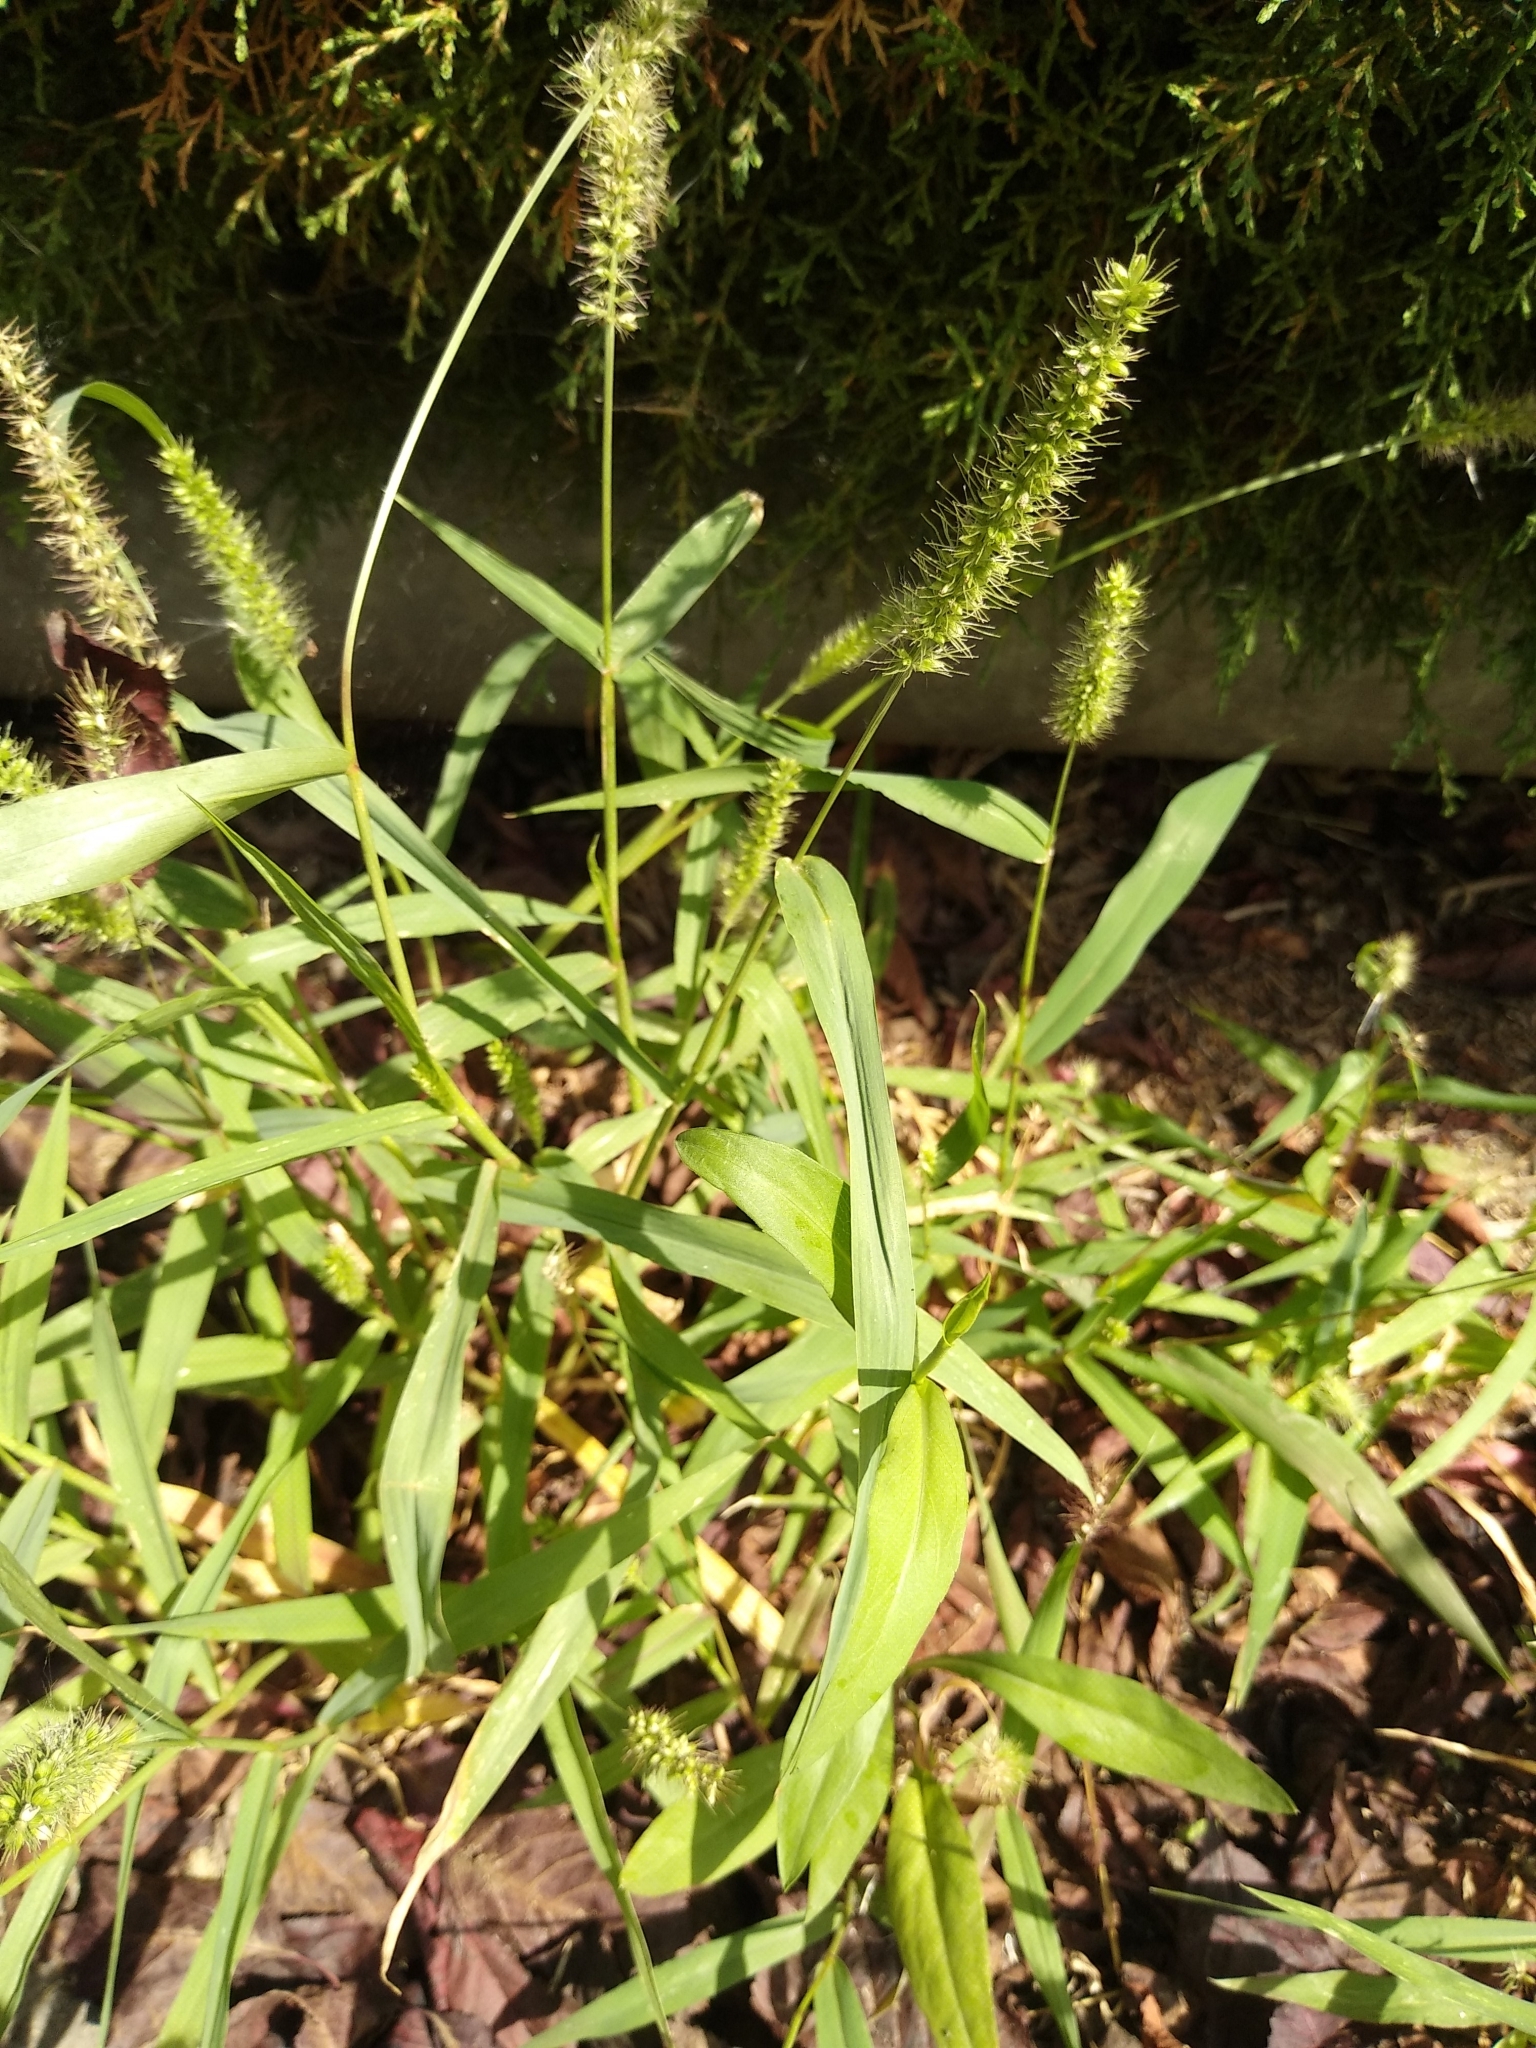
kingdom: Plantae
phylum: Tracheophyta
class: Liliopsida
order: Poales
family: Poaceae
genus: Setaria
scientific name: Setaria verticillata
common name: Hooked bristlegrass
